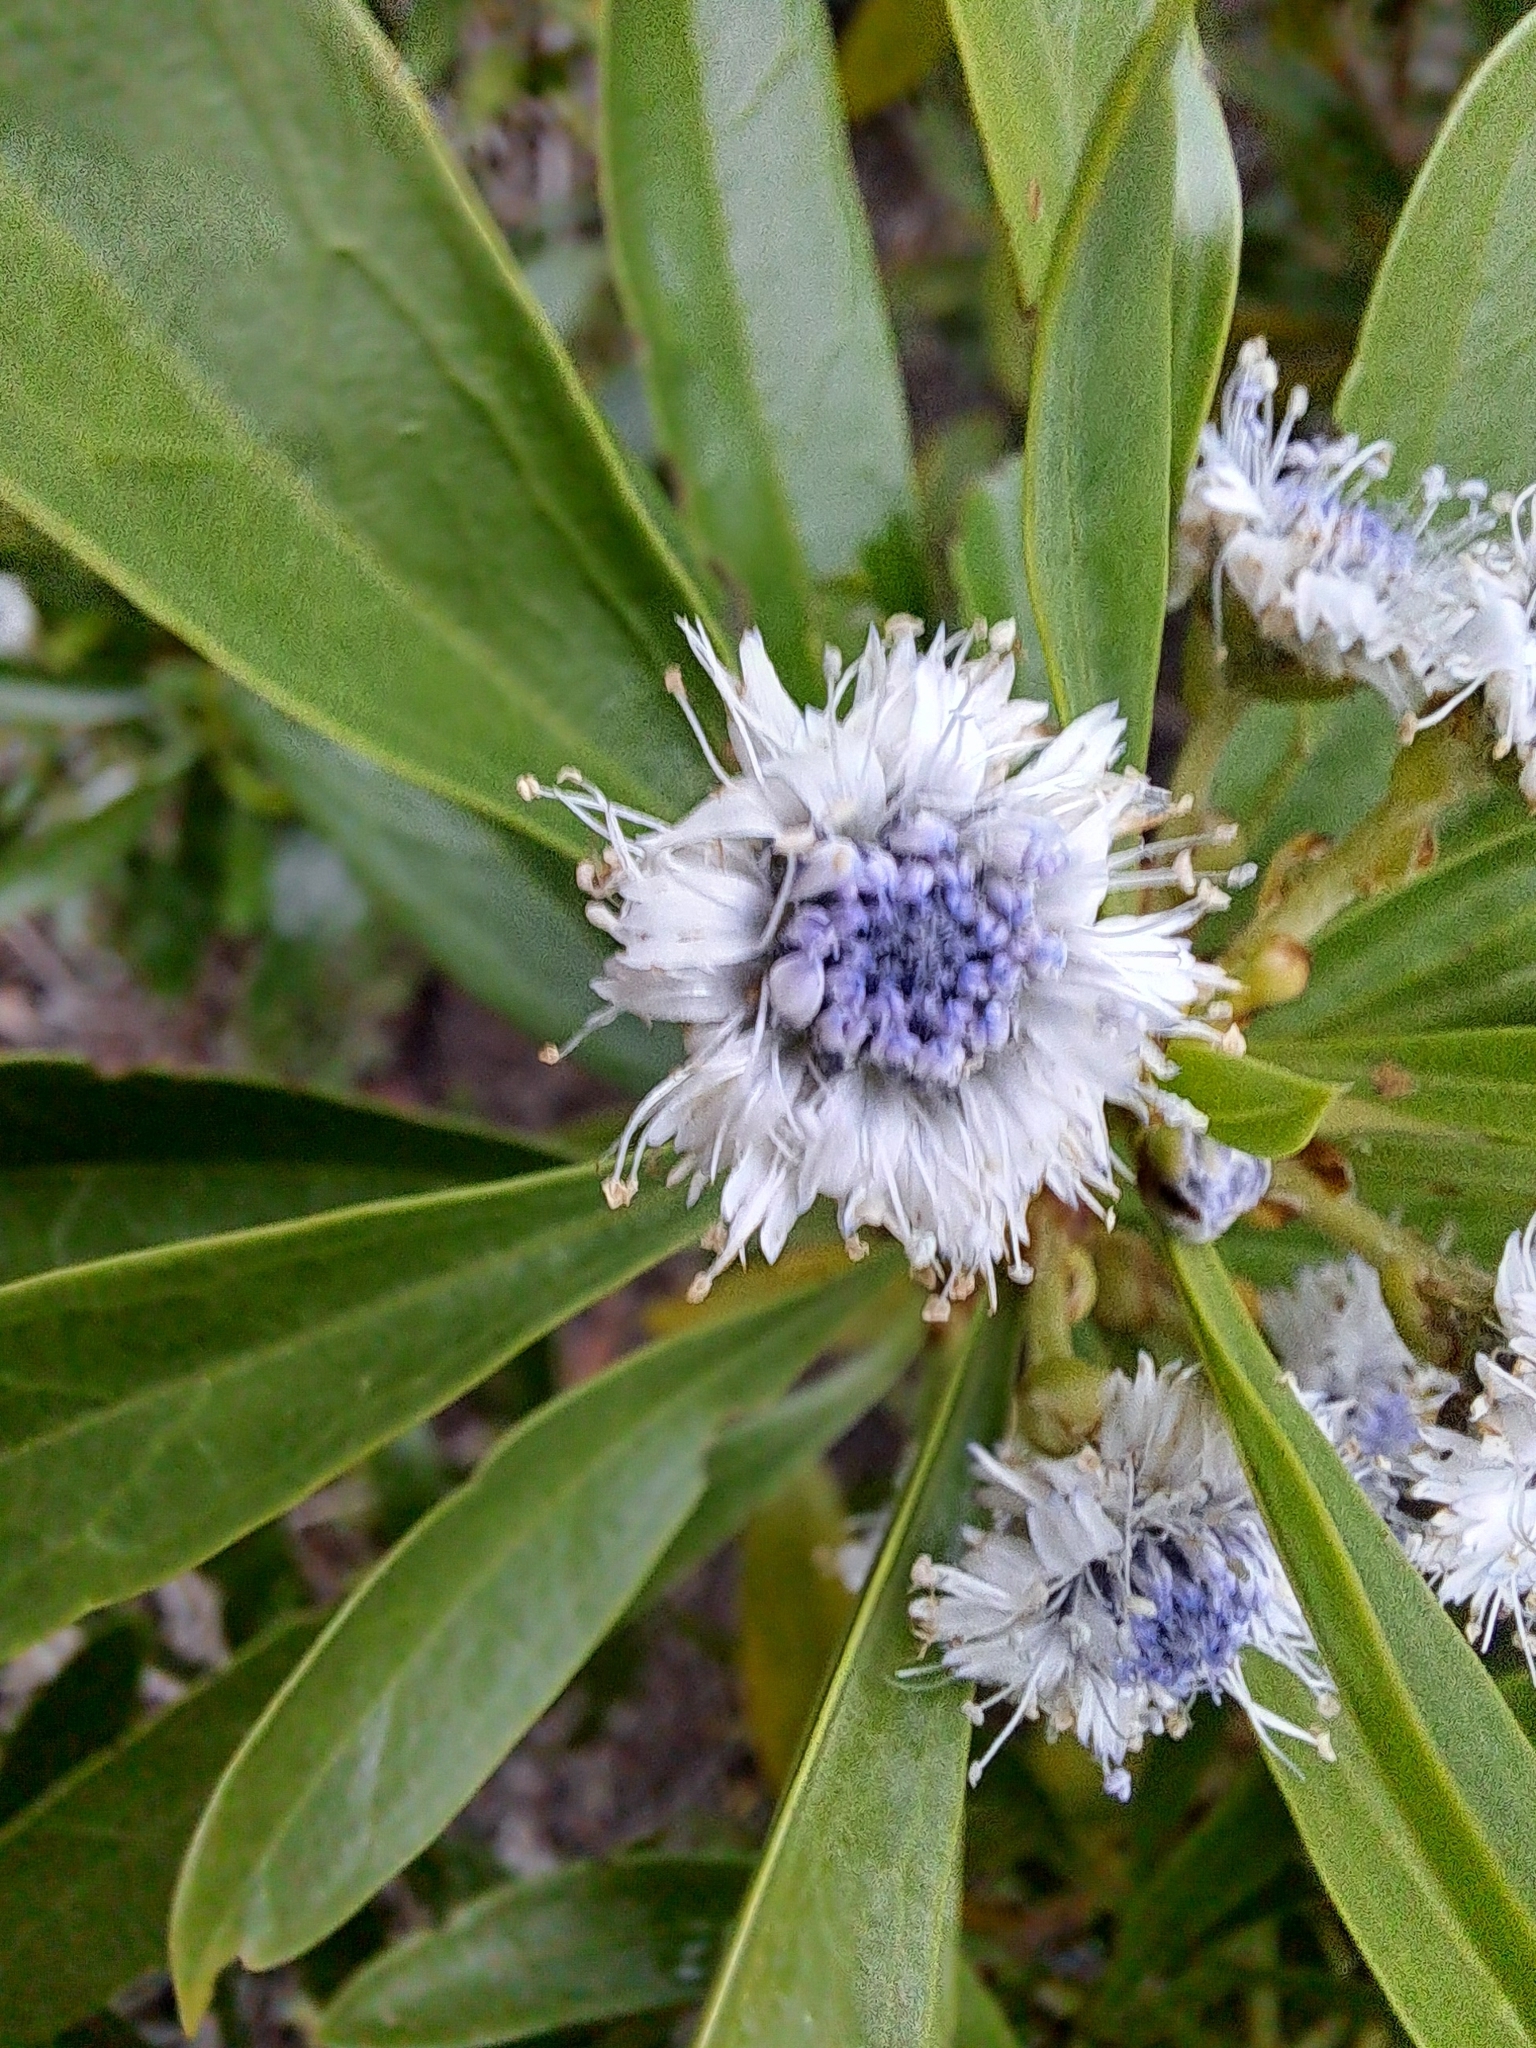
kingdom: Plantae
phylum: Tracheophyta
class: Magnoliopsida
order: Lamiales
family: Plantaginaceae
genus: Globularia
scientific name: Globularia salicina
